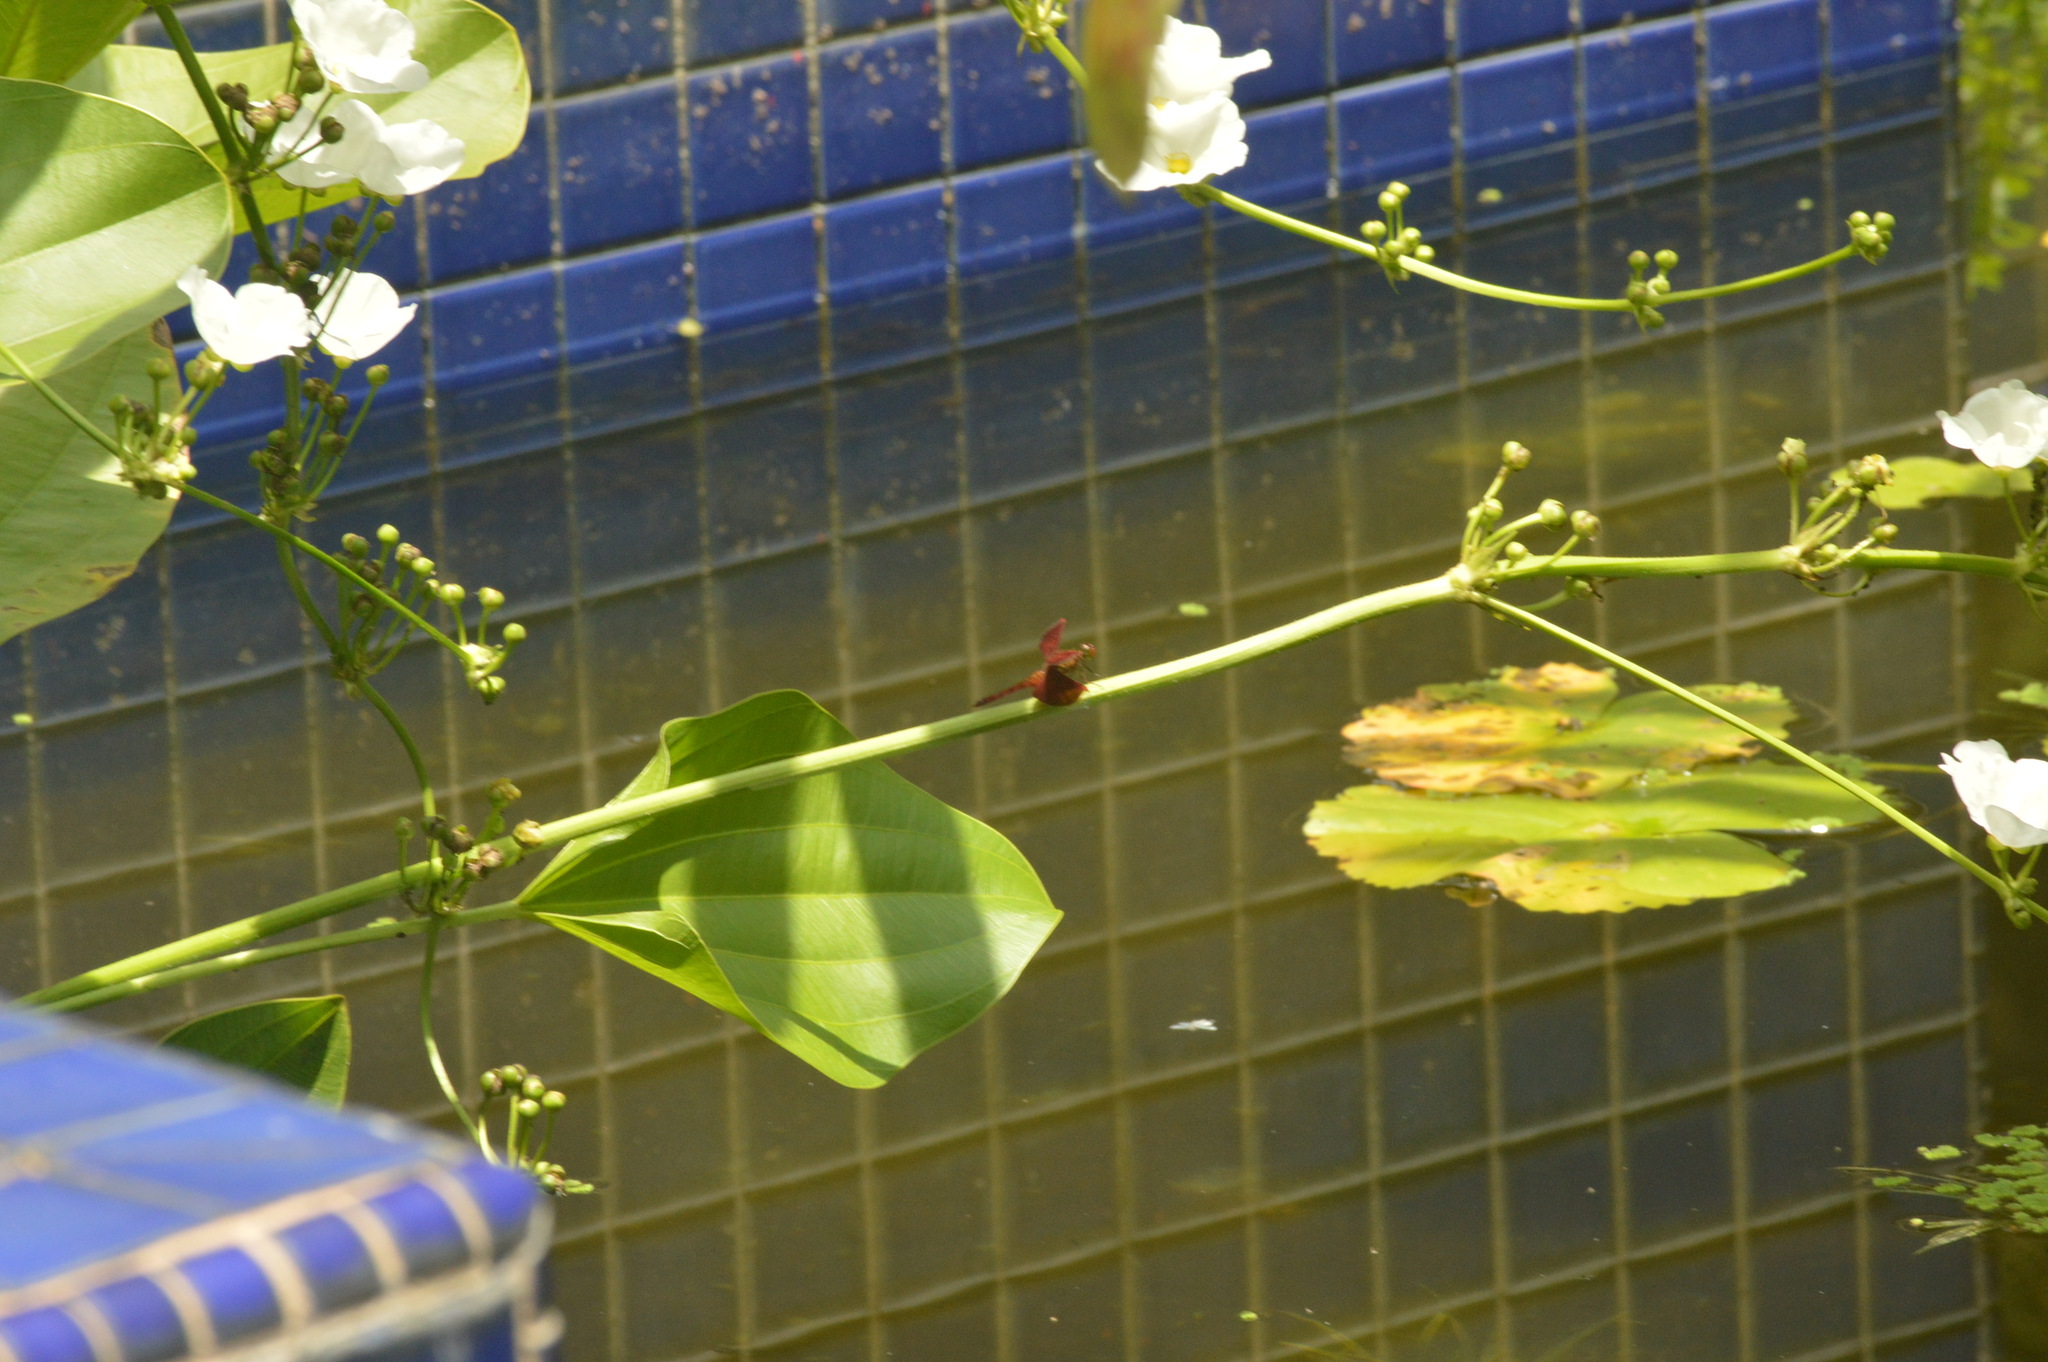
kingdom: Animalia
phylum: Arthropoda
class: Insecta
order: Odonata
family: Libellulidae
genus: Neurothemis
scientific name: Neurothemis fluctuans
